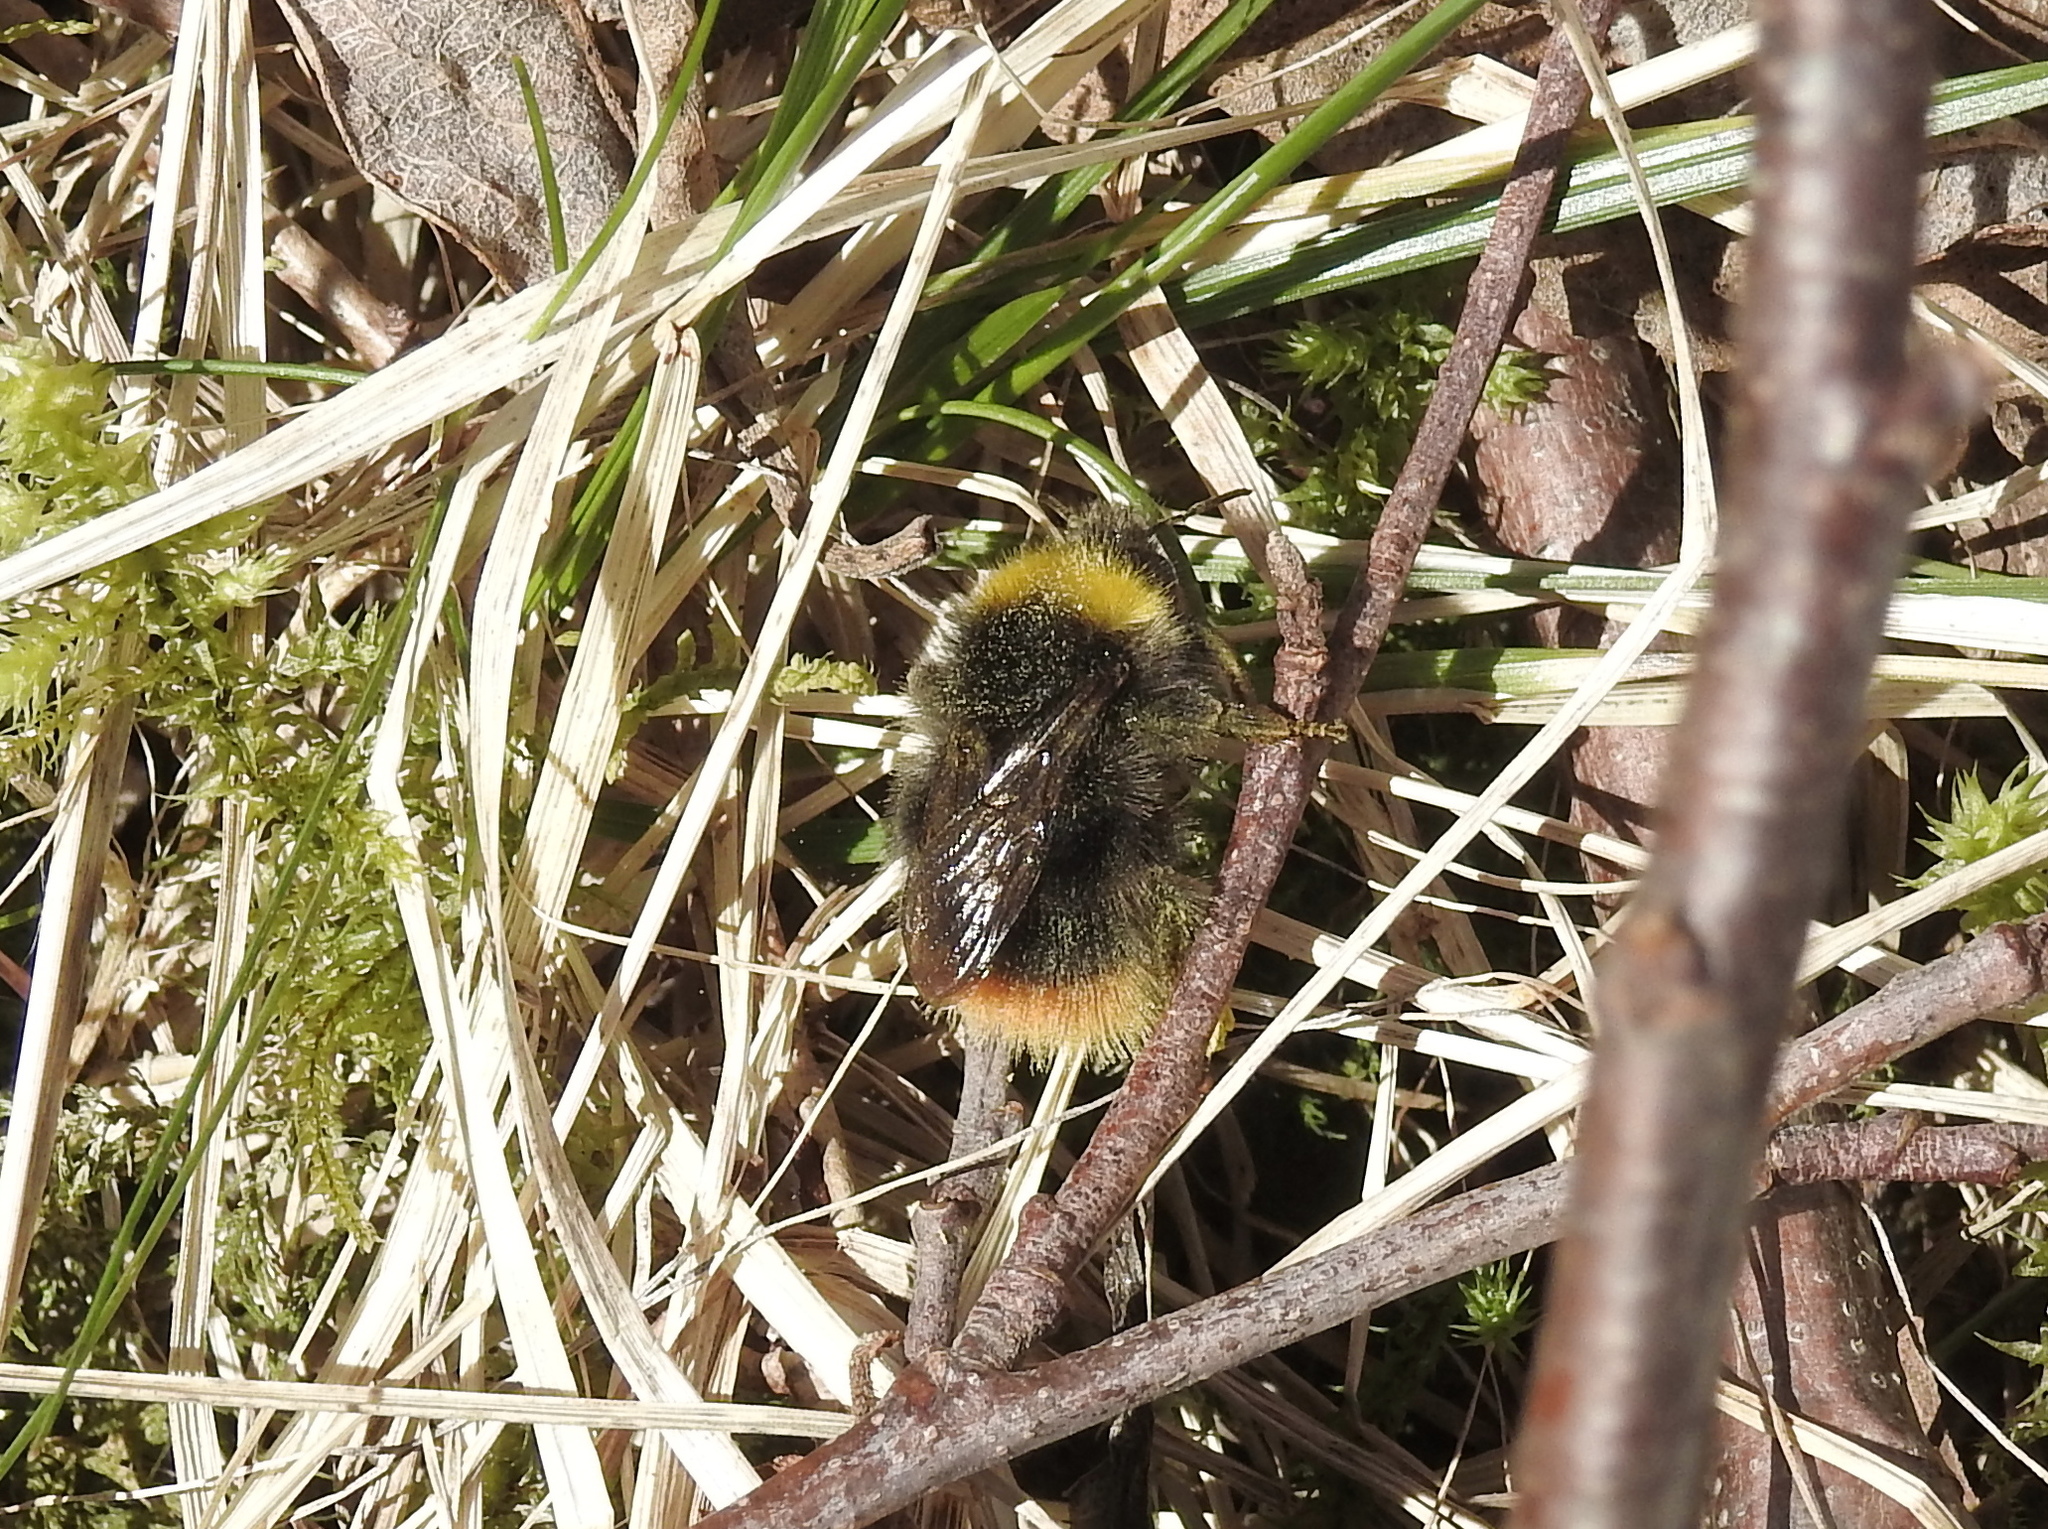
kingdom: Animalia
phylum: Arthropoda
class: Insecta
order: Hymenoptera
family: Apidae
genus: Bombus
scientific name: Bombus pratorum
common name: Early humble-bee
